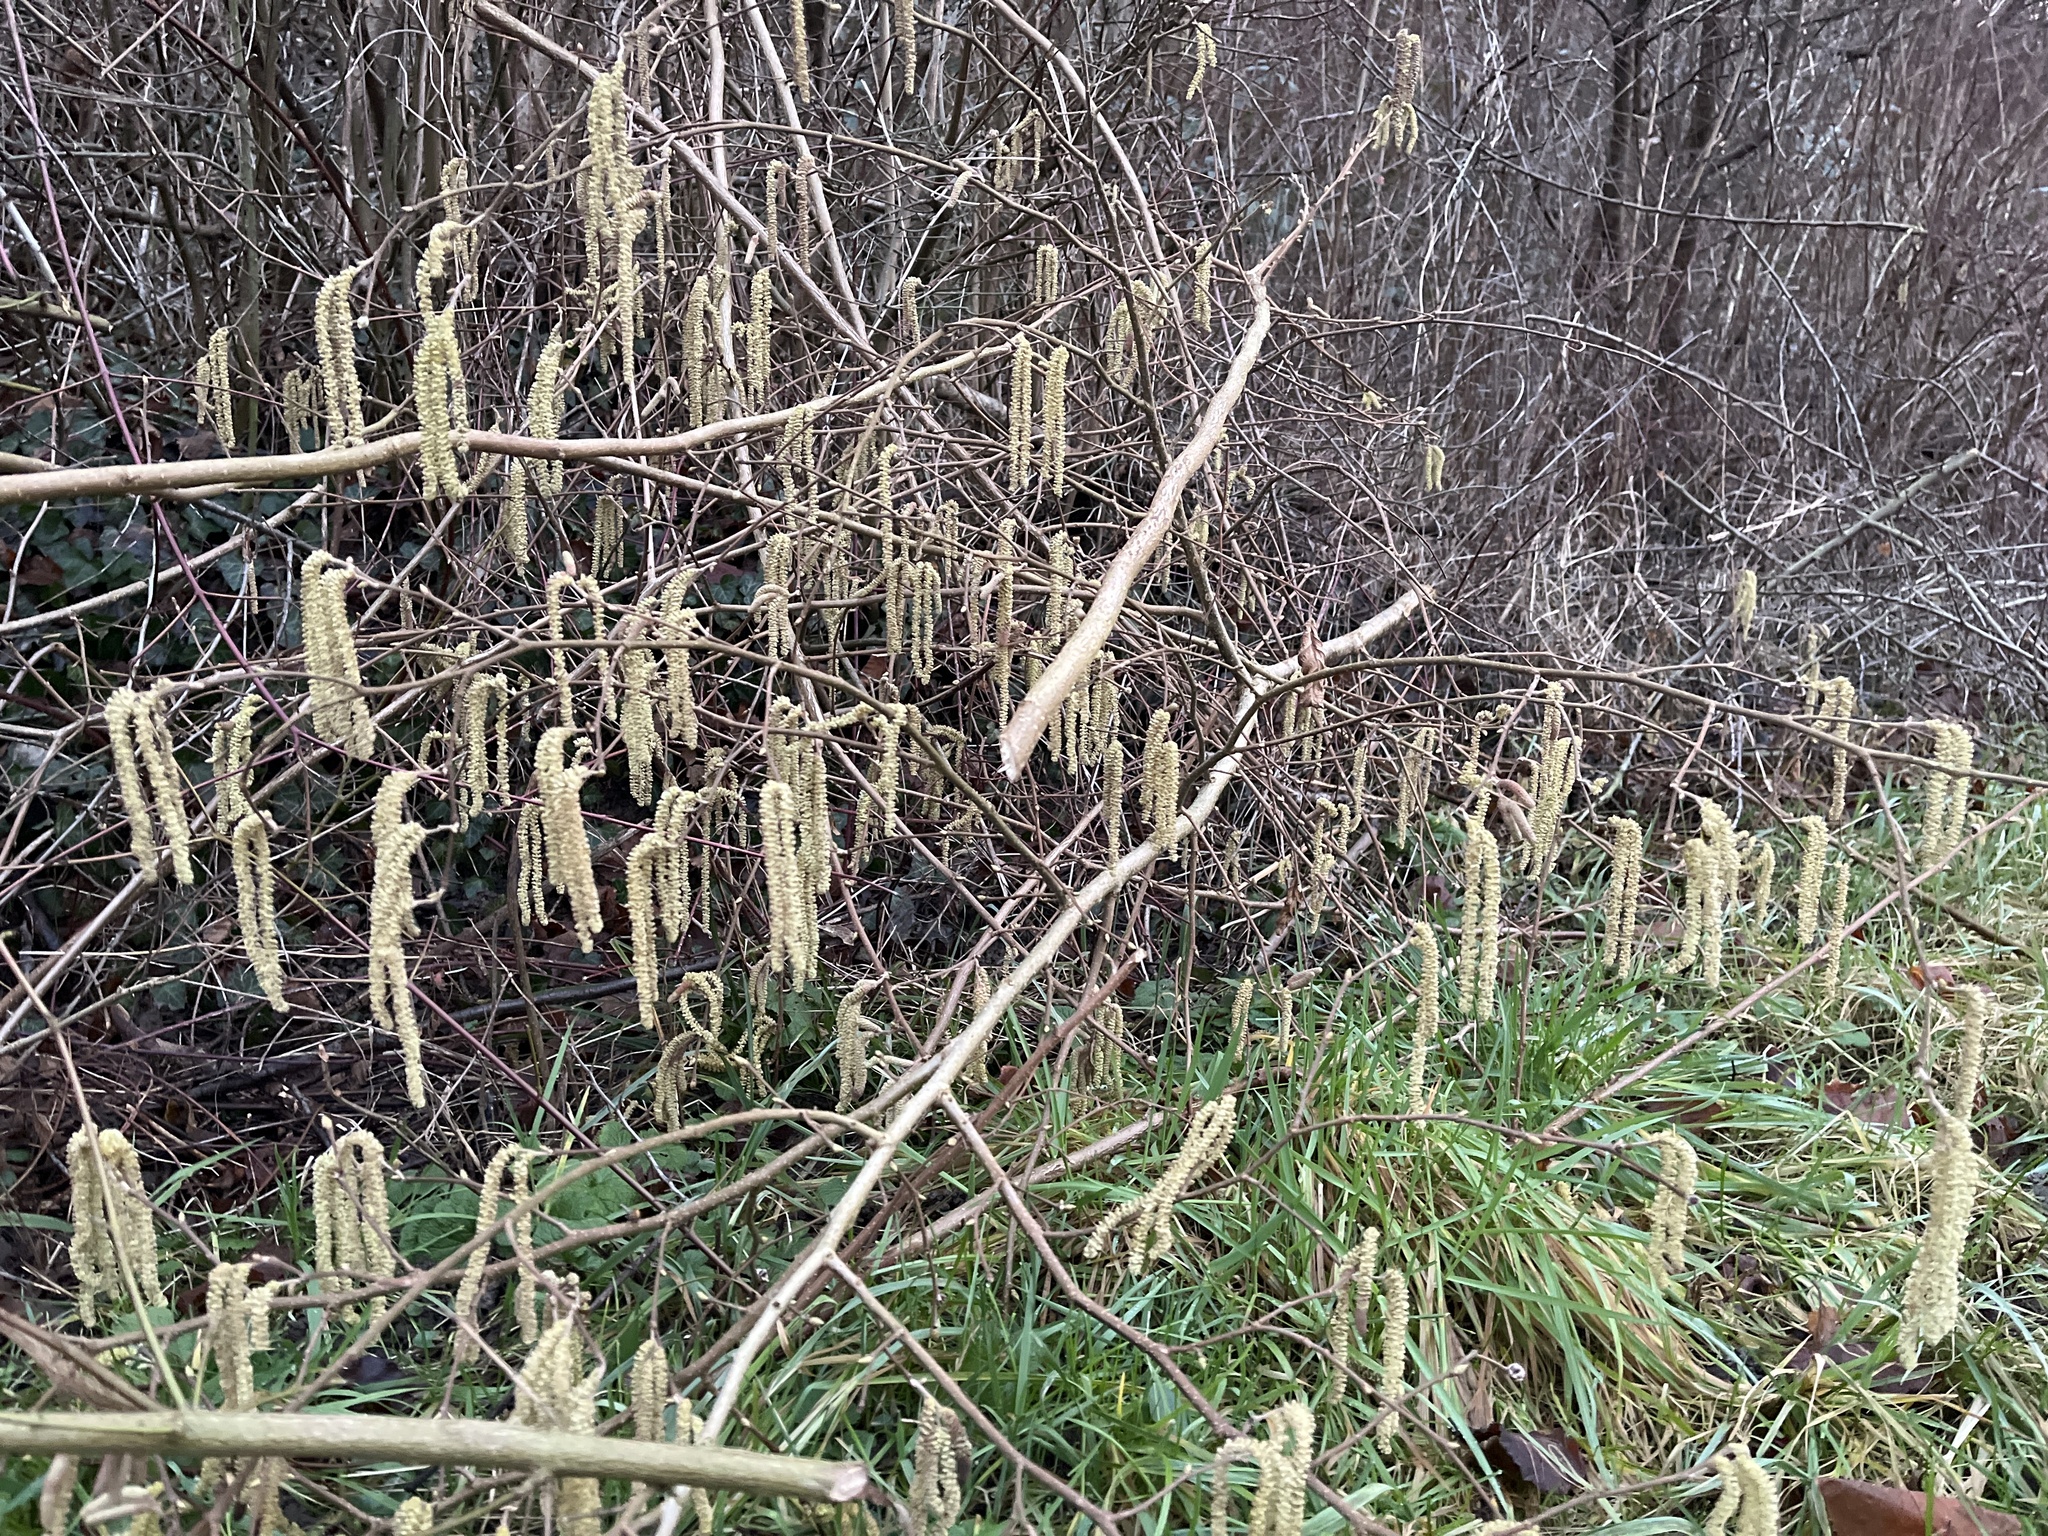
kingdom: Plantae
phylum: Tracheophyta
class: Magnoliopsida
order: Fagales
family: Betulaceae
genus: Corylus
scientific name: Corylus avellana
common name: European hazel
